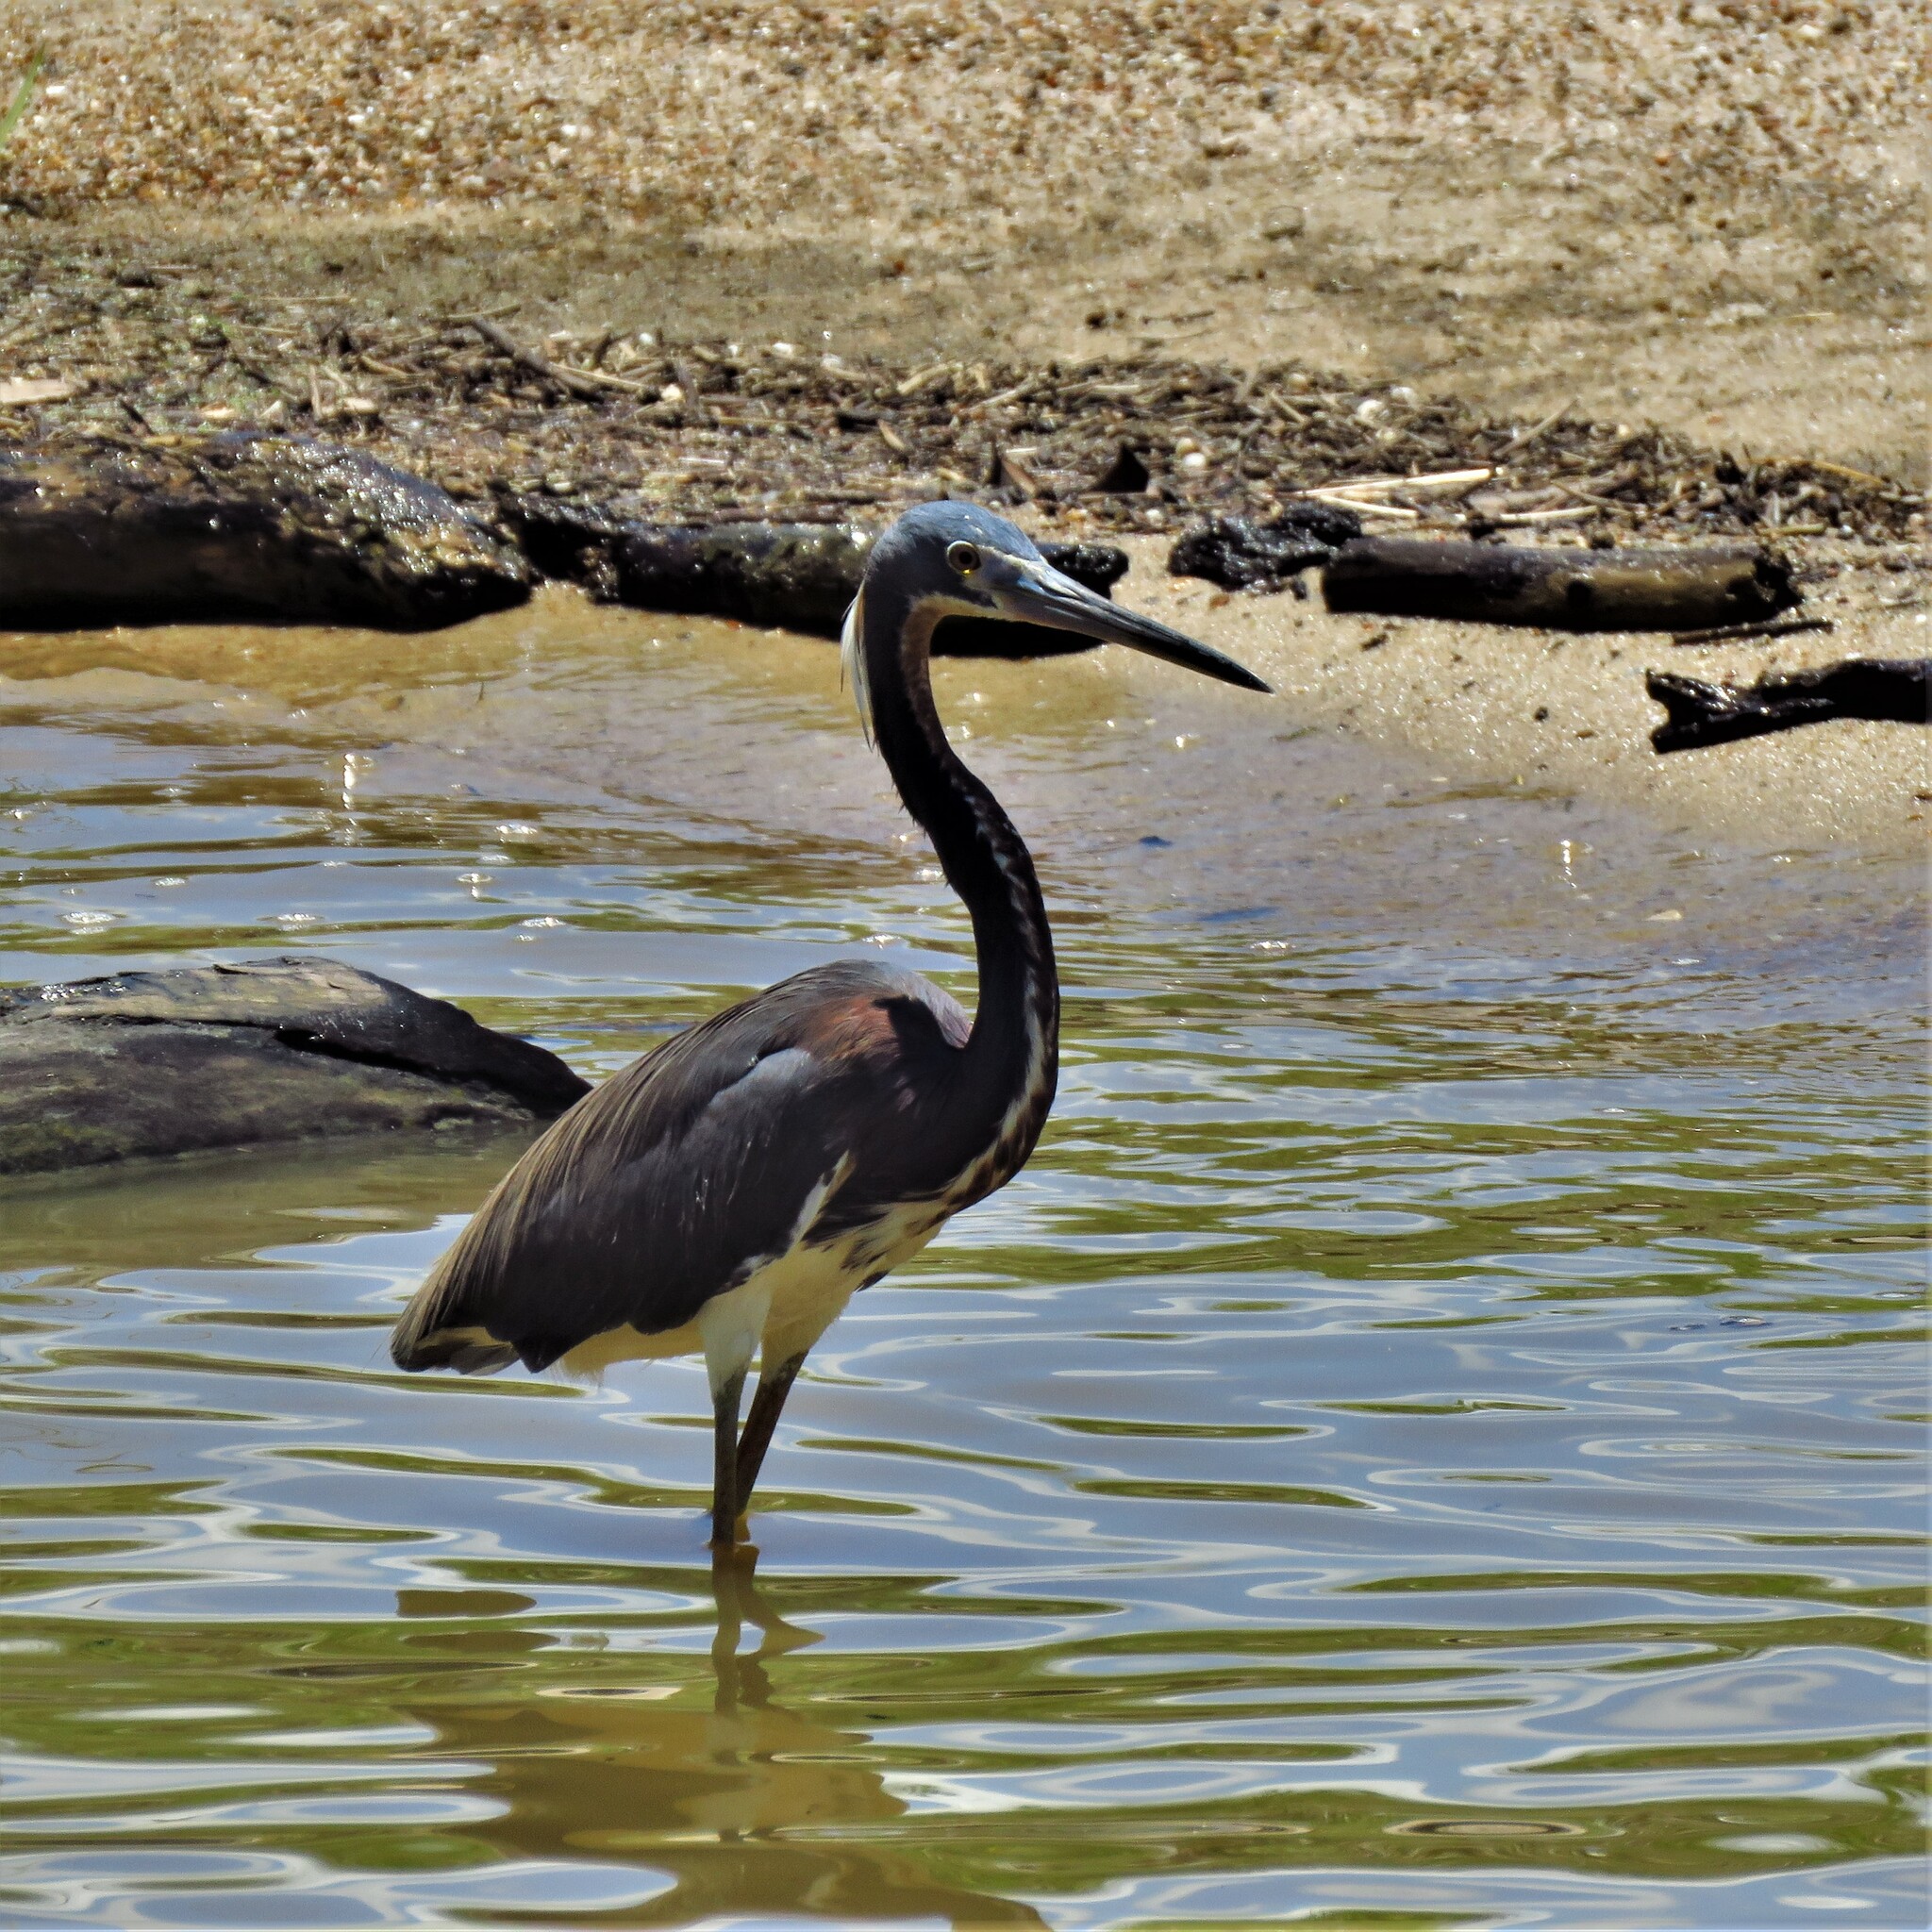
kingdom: Animalia
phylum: Chordata
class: Aves
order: Pelecaniformes
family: Ardeidae
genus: Egretta
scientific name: Egretta tricolor
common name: Tricolored heron
